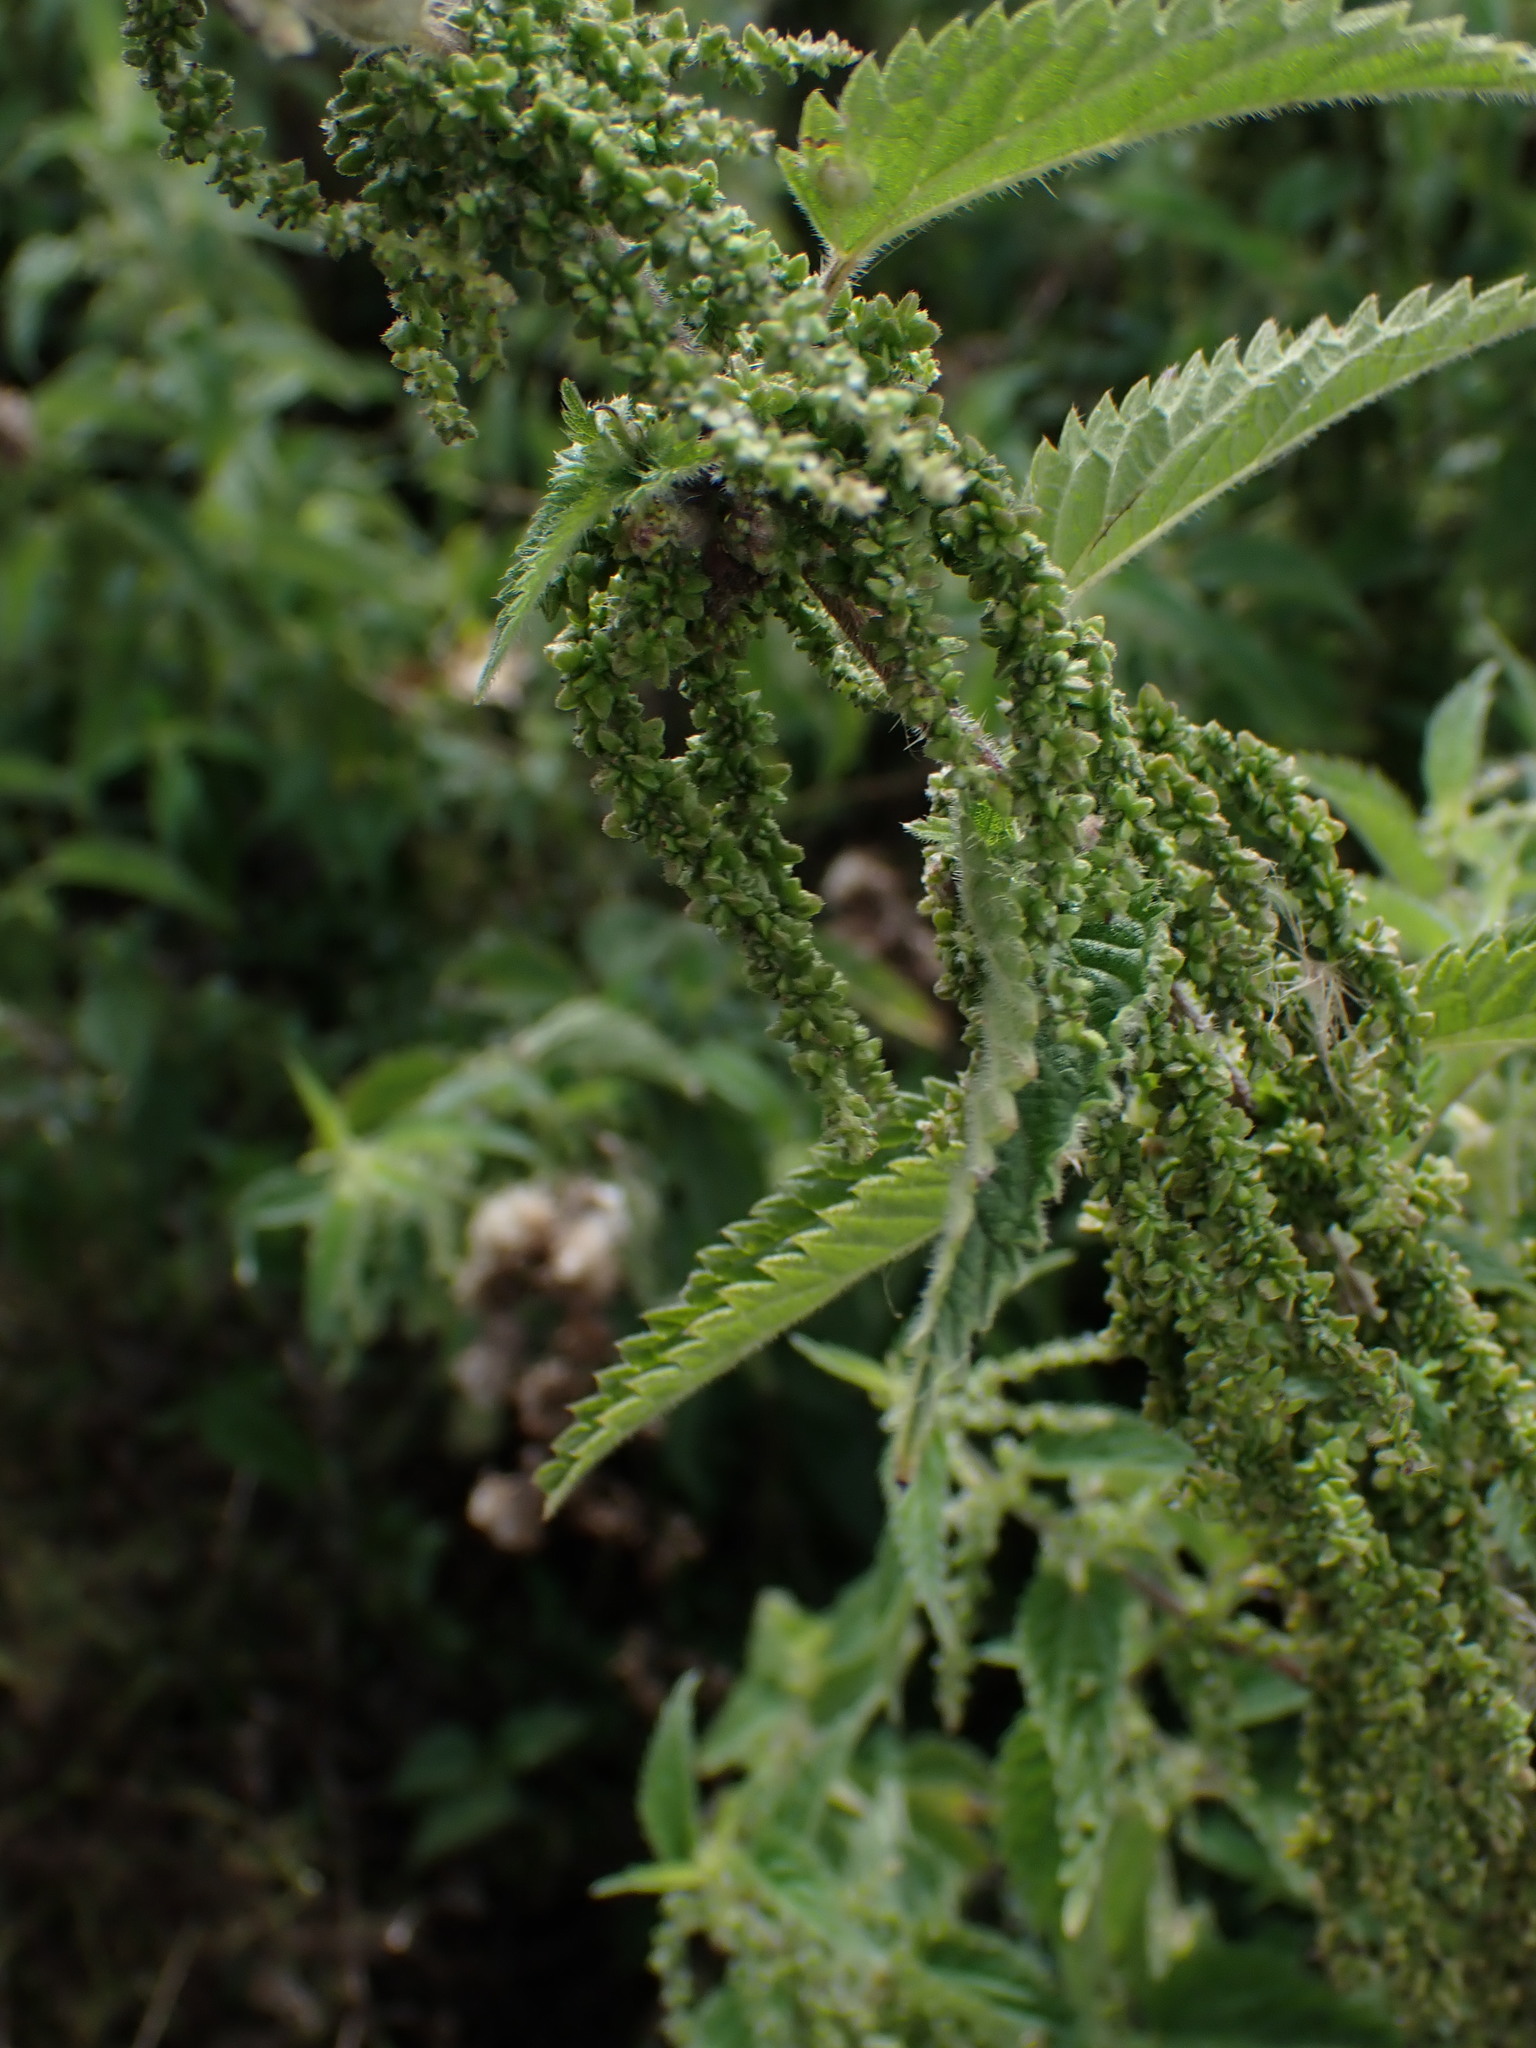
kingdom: Plantae
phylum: Tracheophyta
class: Magnoliopsida
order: Rosales
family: Urticaceae
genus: Urtica
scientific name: Urtica dioica
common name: Common nettle
